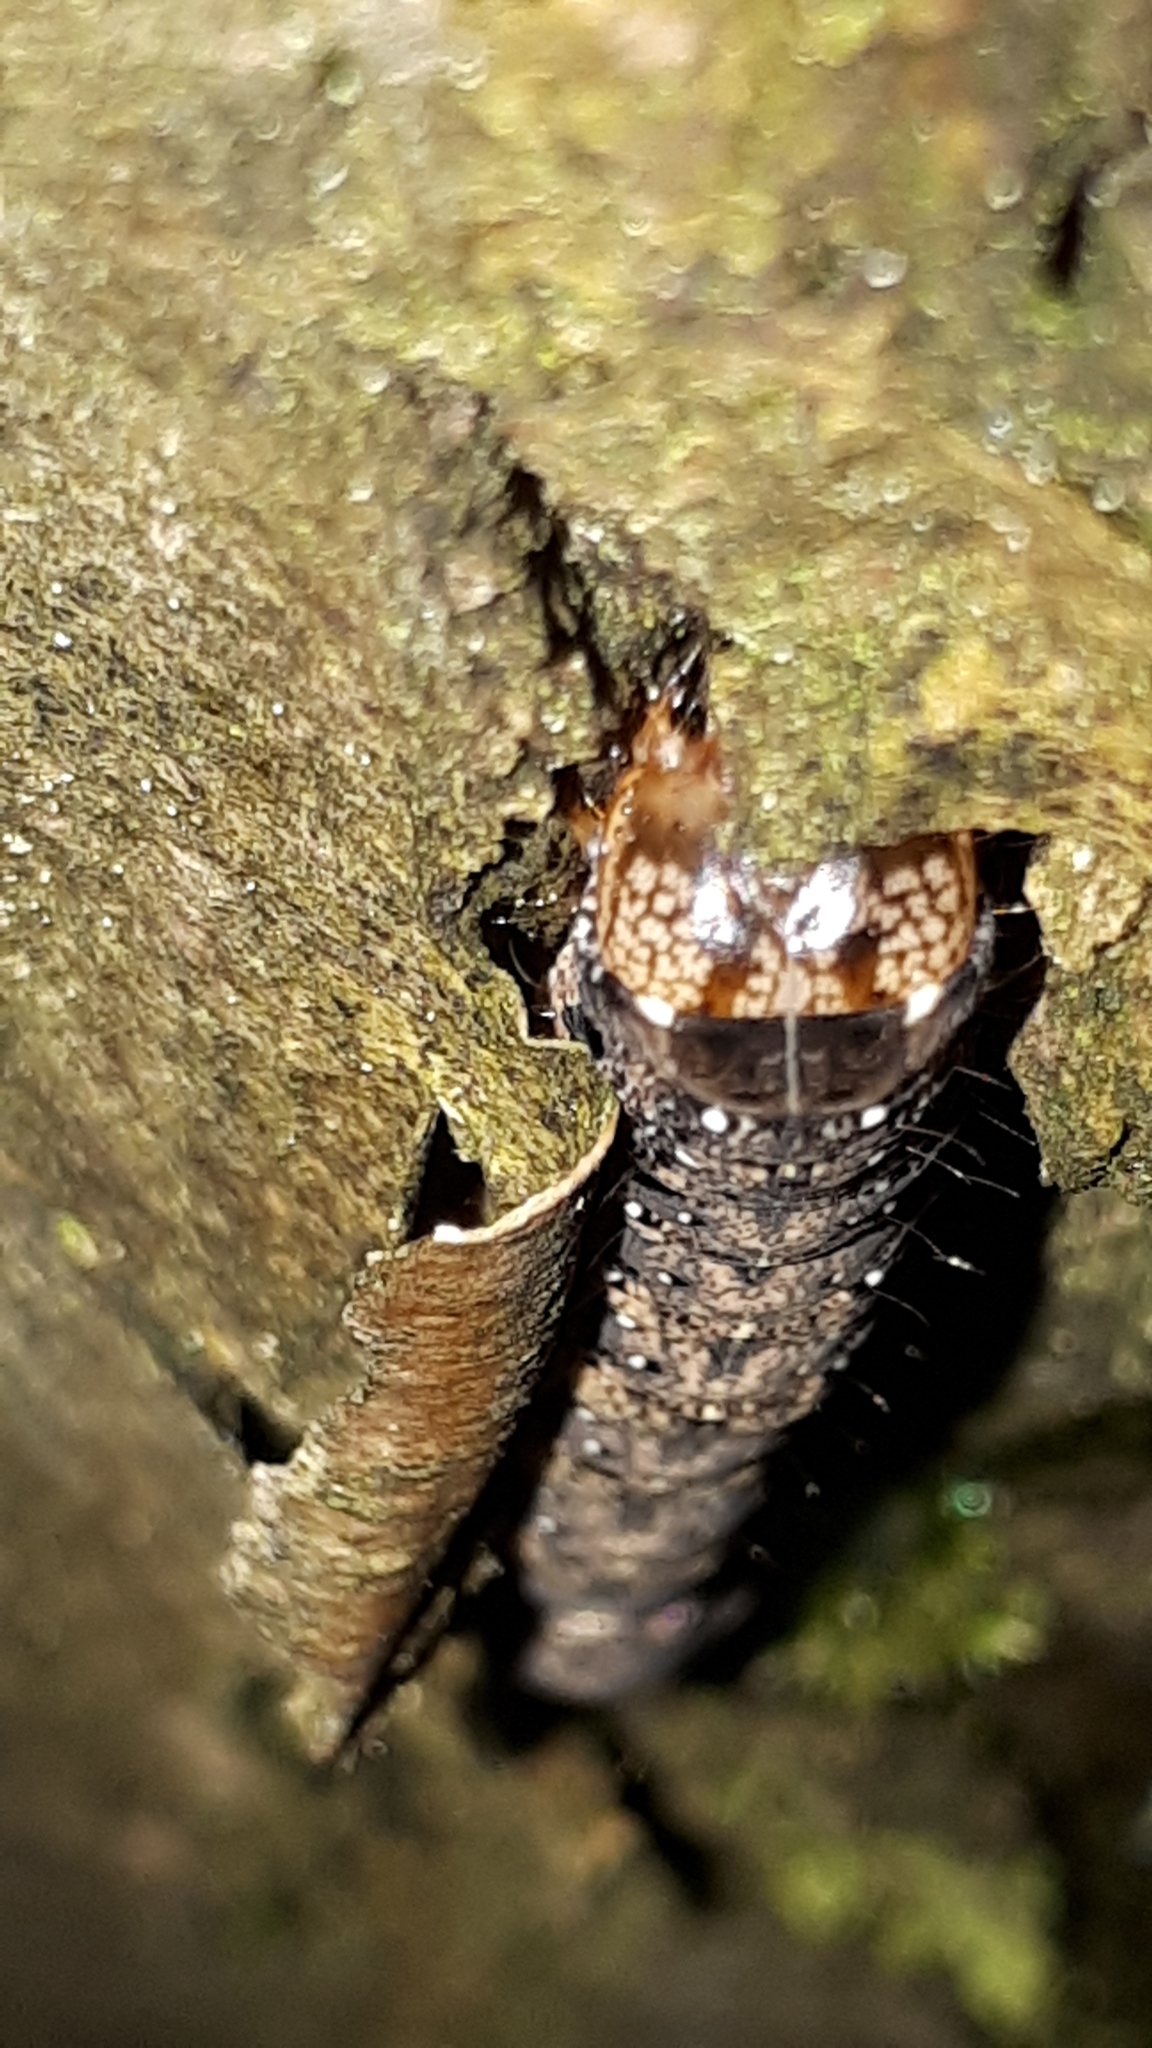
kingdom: Animalia
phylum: Arthropoda
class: Insecta
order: Lepidoptera
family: Noctuidae
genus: Griposia
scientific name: Griposia aprilina
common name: Merveille du jour
